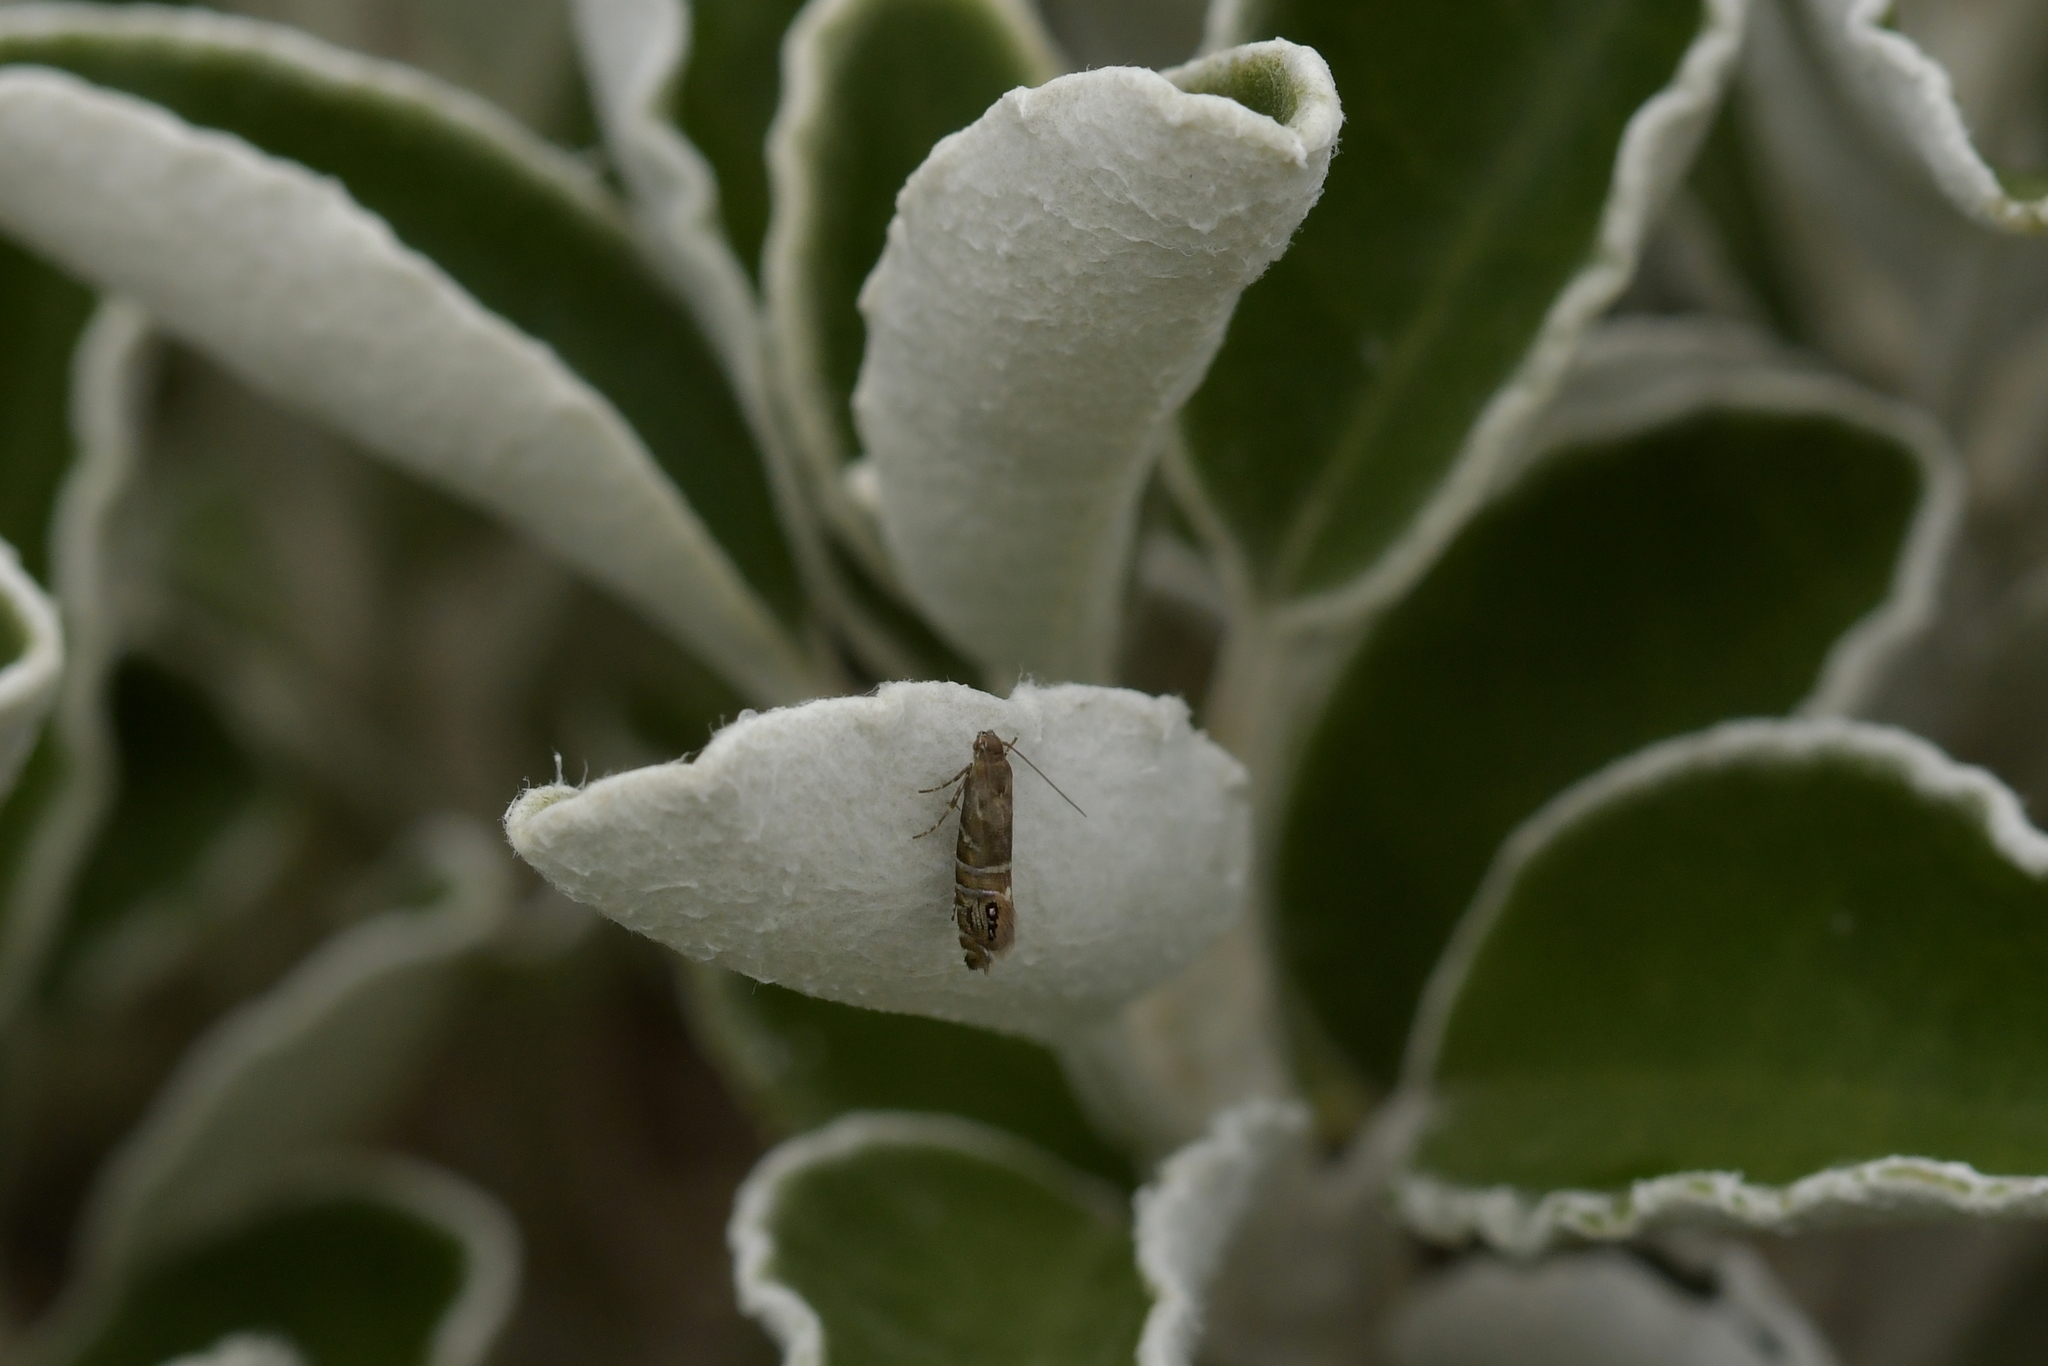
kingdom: Animalia
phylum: Arthropoda
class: Insecta
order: Lepidoptera
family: Glyphipterigidae
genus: Glyphipterix
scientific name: Glyphipterix erastis
